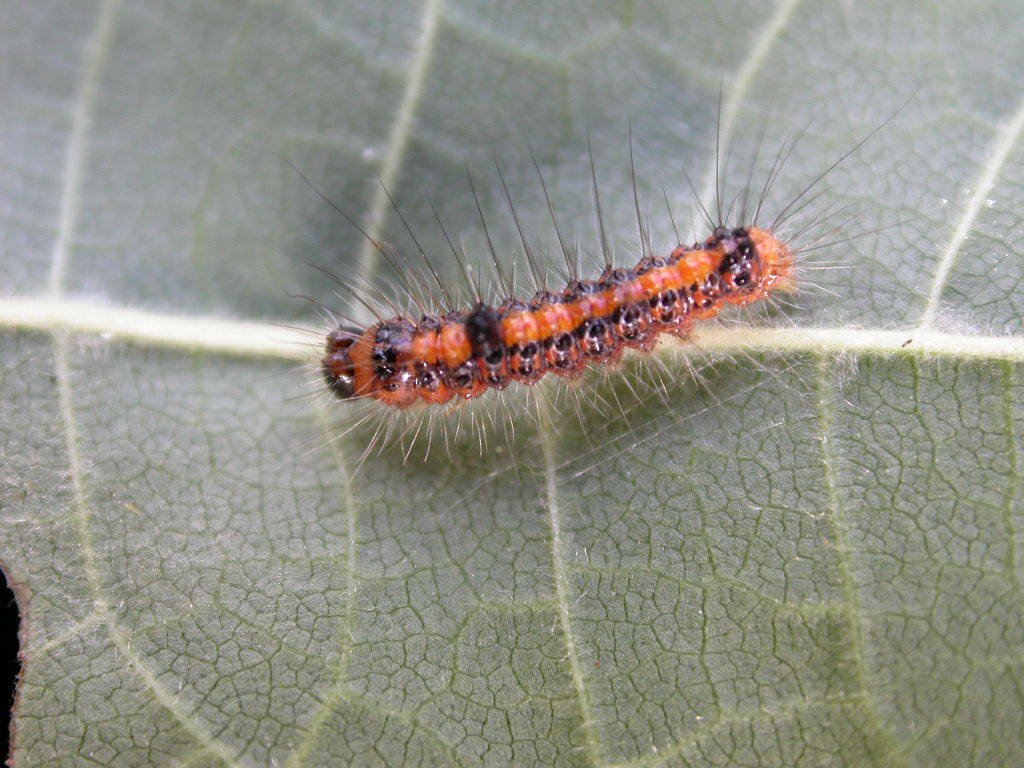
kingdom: Animalia
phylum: Arthropoda
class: Insecta
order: Lepidoptera
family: Noctuidae
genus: Acronicta
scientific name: Acronicta psi
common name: Grey dagger
